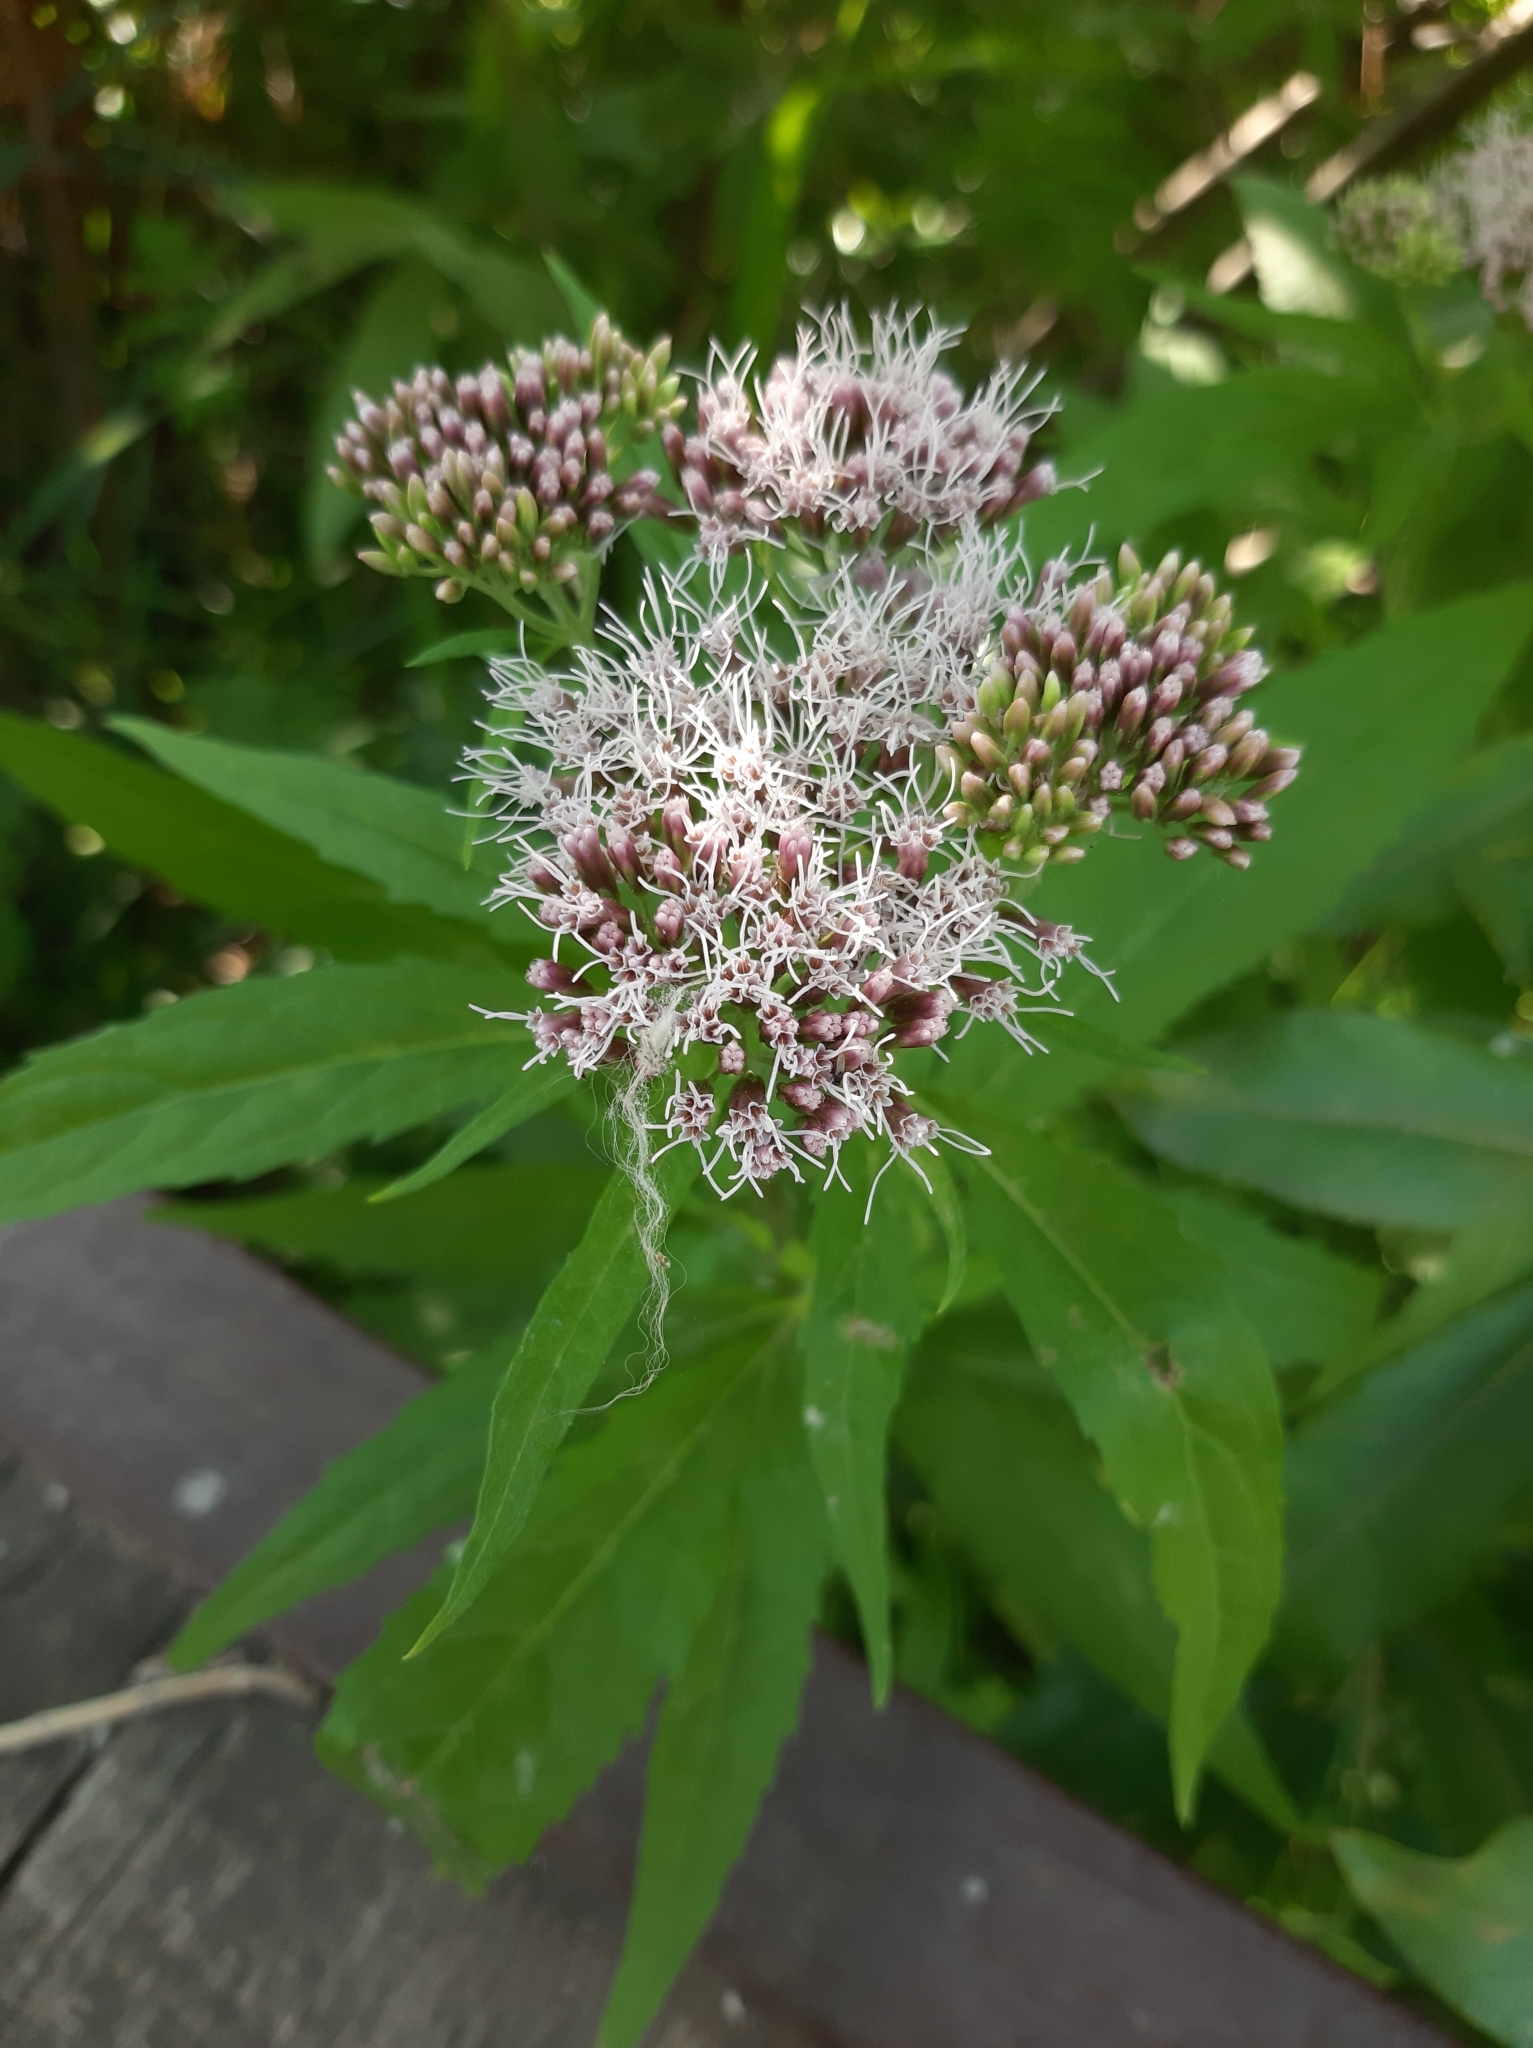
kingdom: Plantae
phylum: Tracheophyta
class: Magnoliopsida
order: Asterales
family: Asteraceae
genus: Eupatorium
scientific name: Eupatorium cannabinum
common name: Hemp-agrimony
